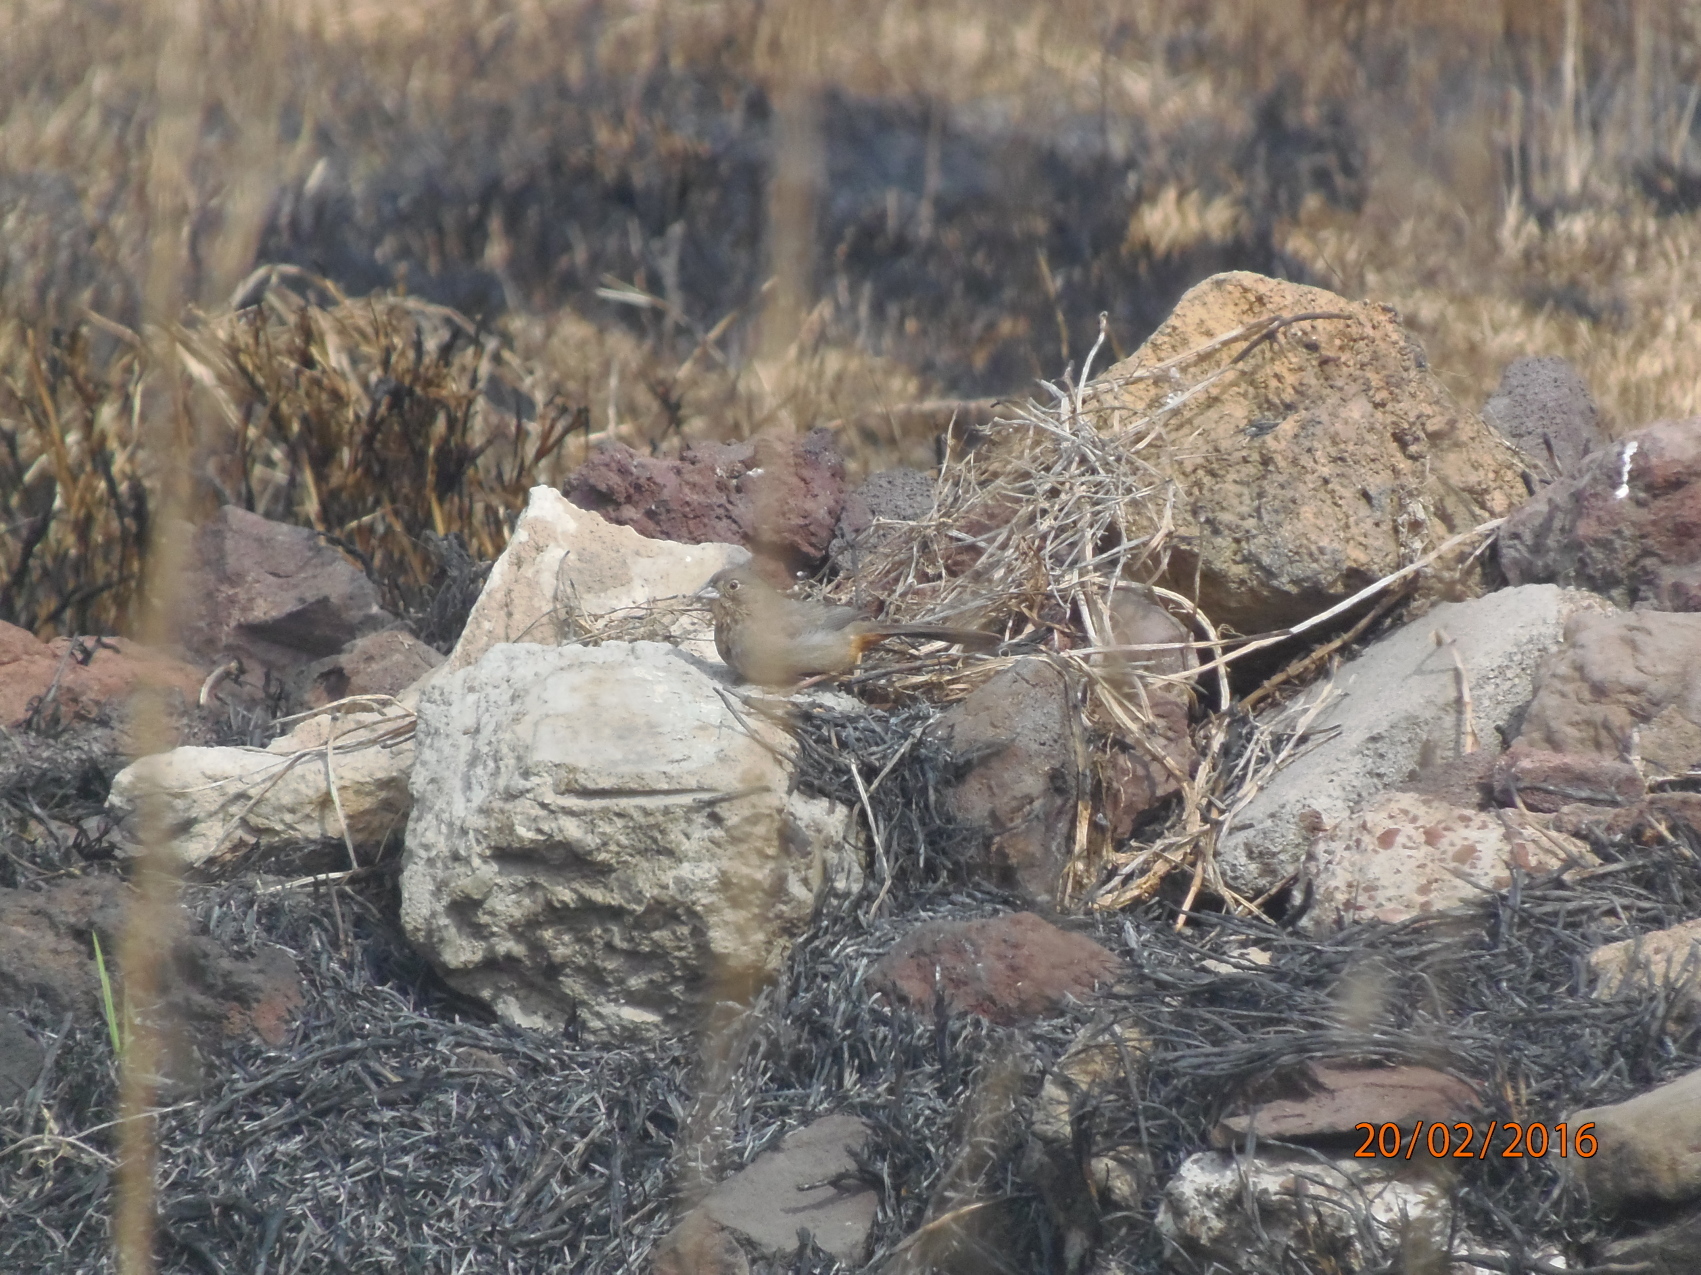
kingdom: Animalia
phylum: Chordata
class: Aves
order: Passeriformes
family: Passerellidae
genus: Melozone
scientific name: Melozone fusca
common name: Canyon towhee
